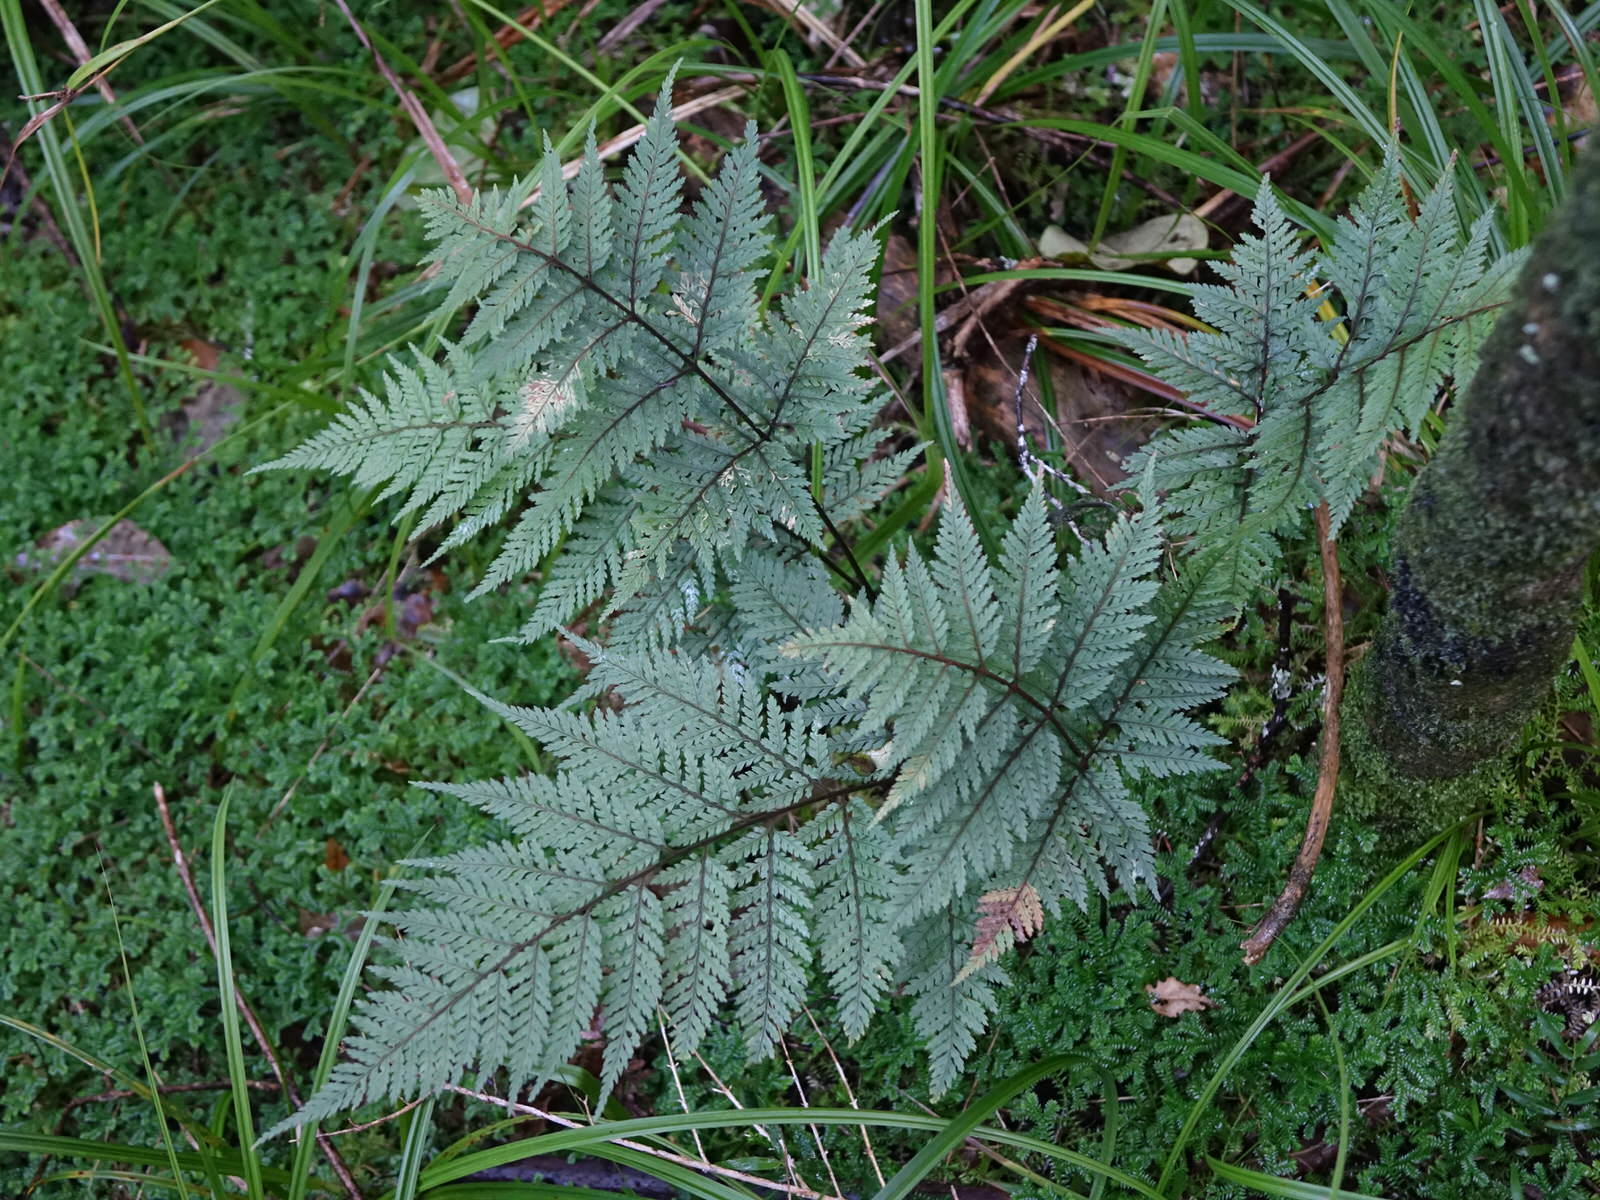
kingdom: Plantae
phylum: Tracheophyta
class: Polypodiopsida
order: Polypodiales
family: Dryopteridaceae
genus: Parapolystichum
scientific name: Parapolystichum glabellum
